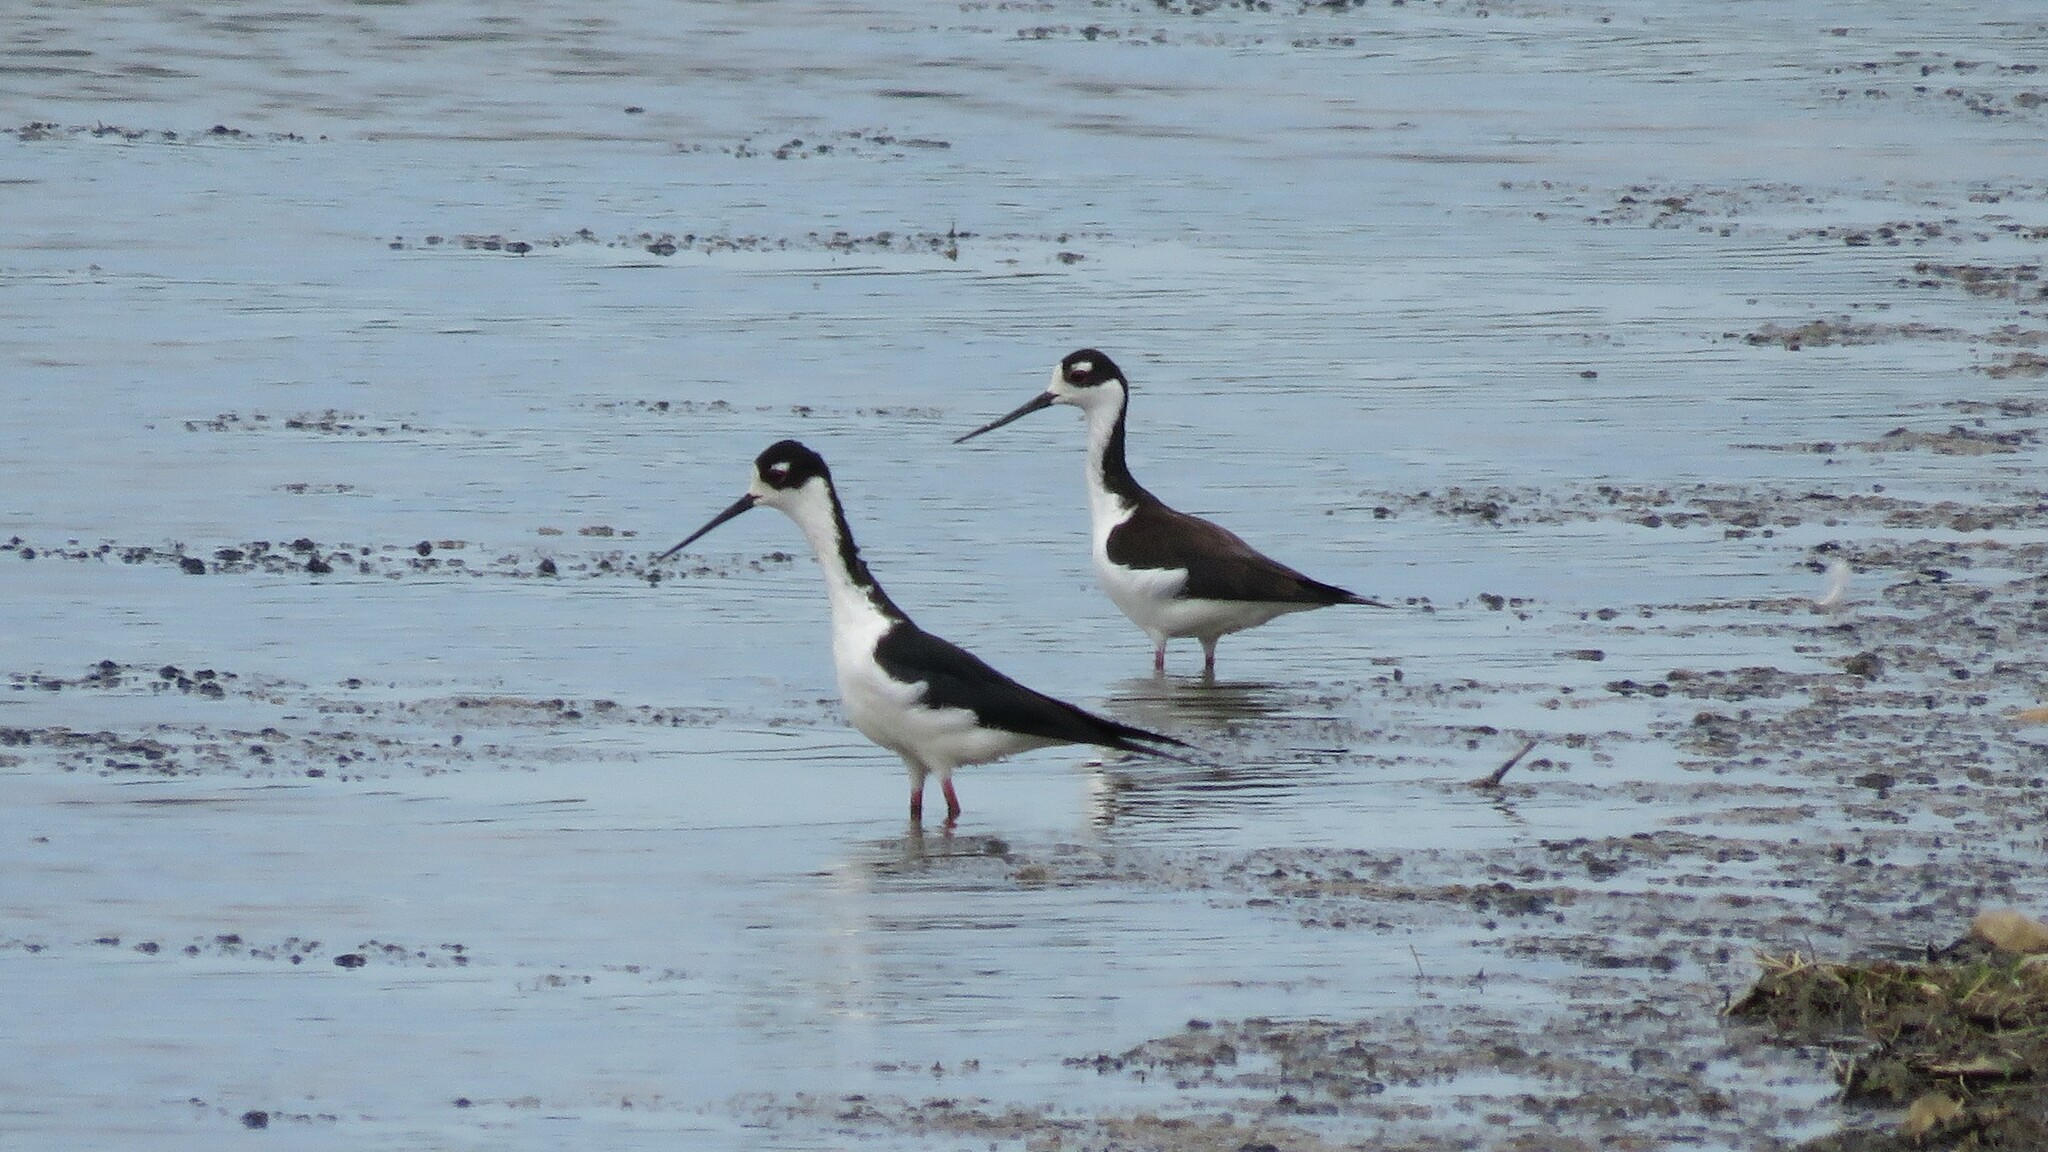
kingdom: Animalia
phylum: Chordata
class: Aves
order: Charadriiformes
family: Recurvirostridae
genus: Himantopus
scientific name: Himantopus mexicanus
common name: Black-necked stilt
